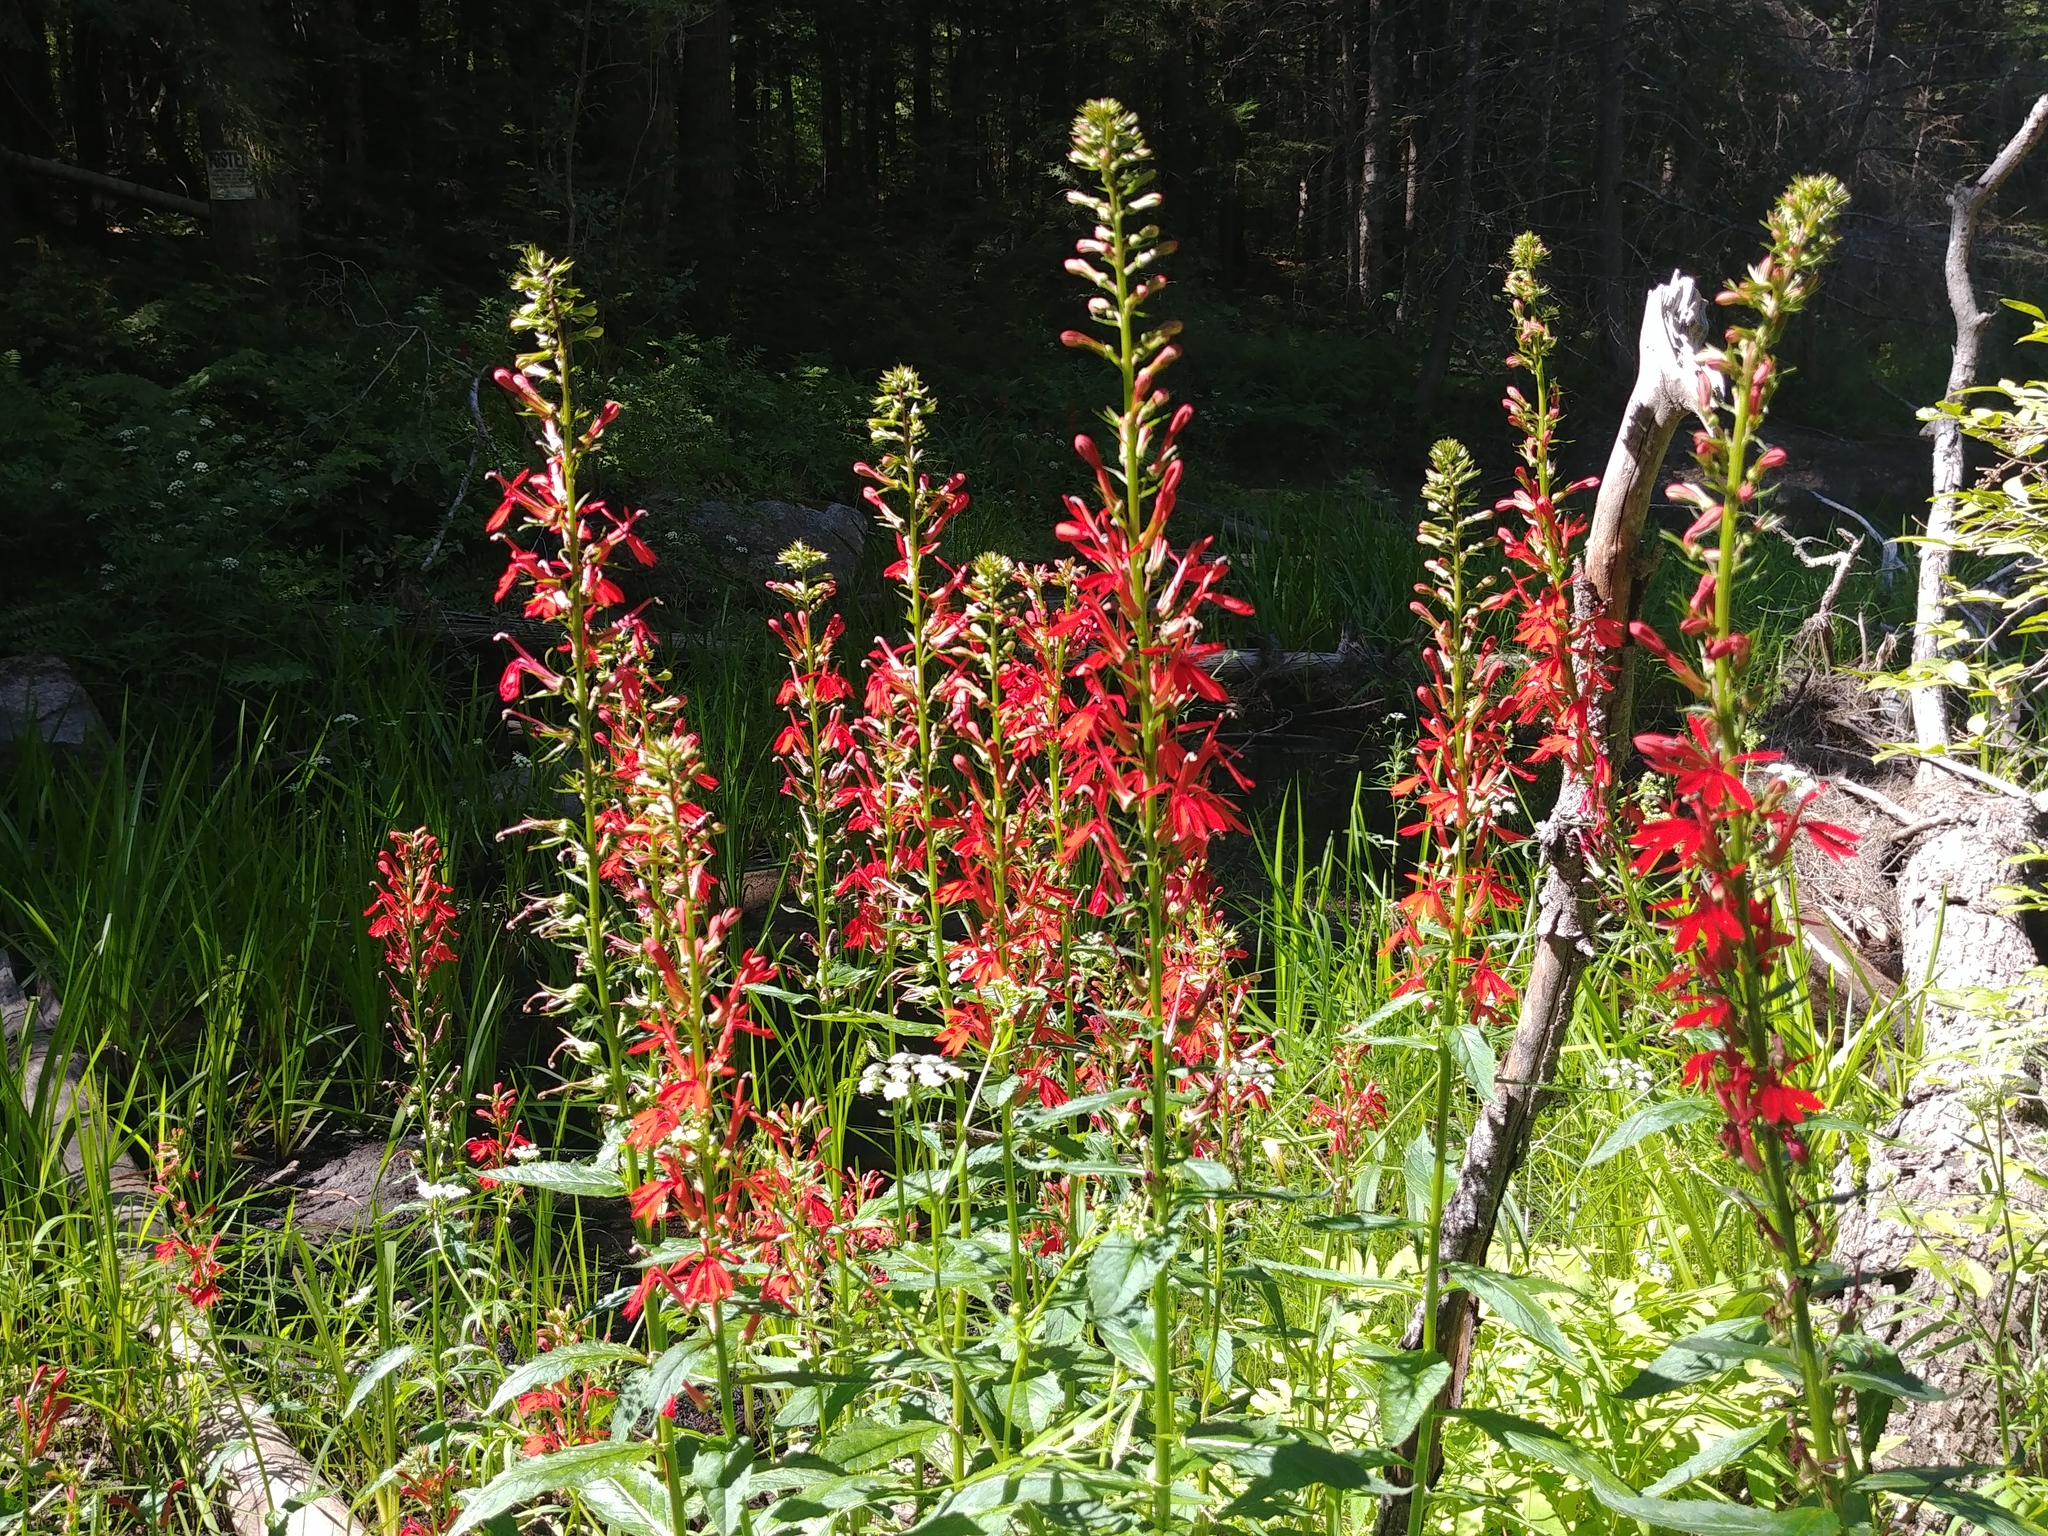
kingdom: Plantae
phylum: Tracheophyta
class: Magnoliopsida
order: Asterales
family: Campanulaceae
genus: Lobelia
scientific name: Lobelia cardinalis
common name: Cardinal flower
